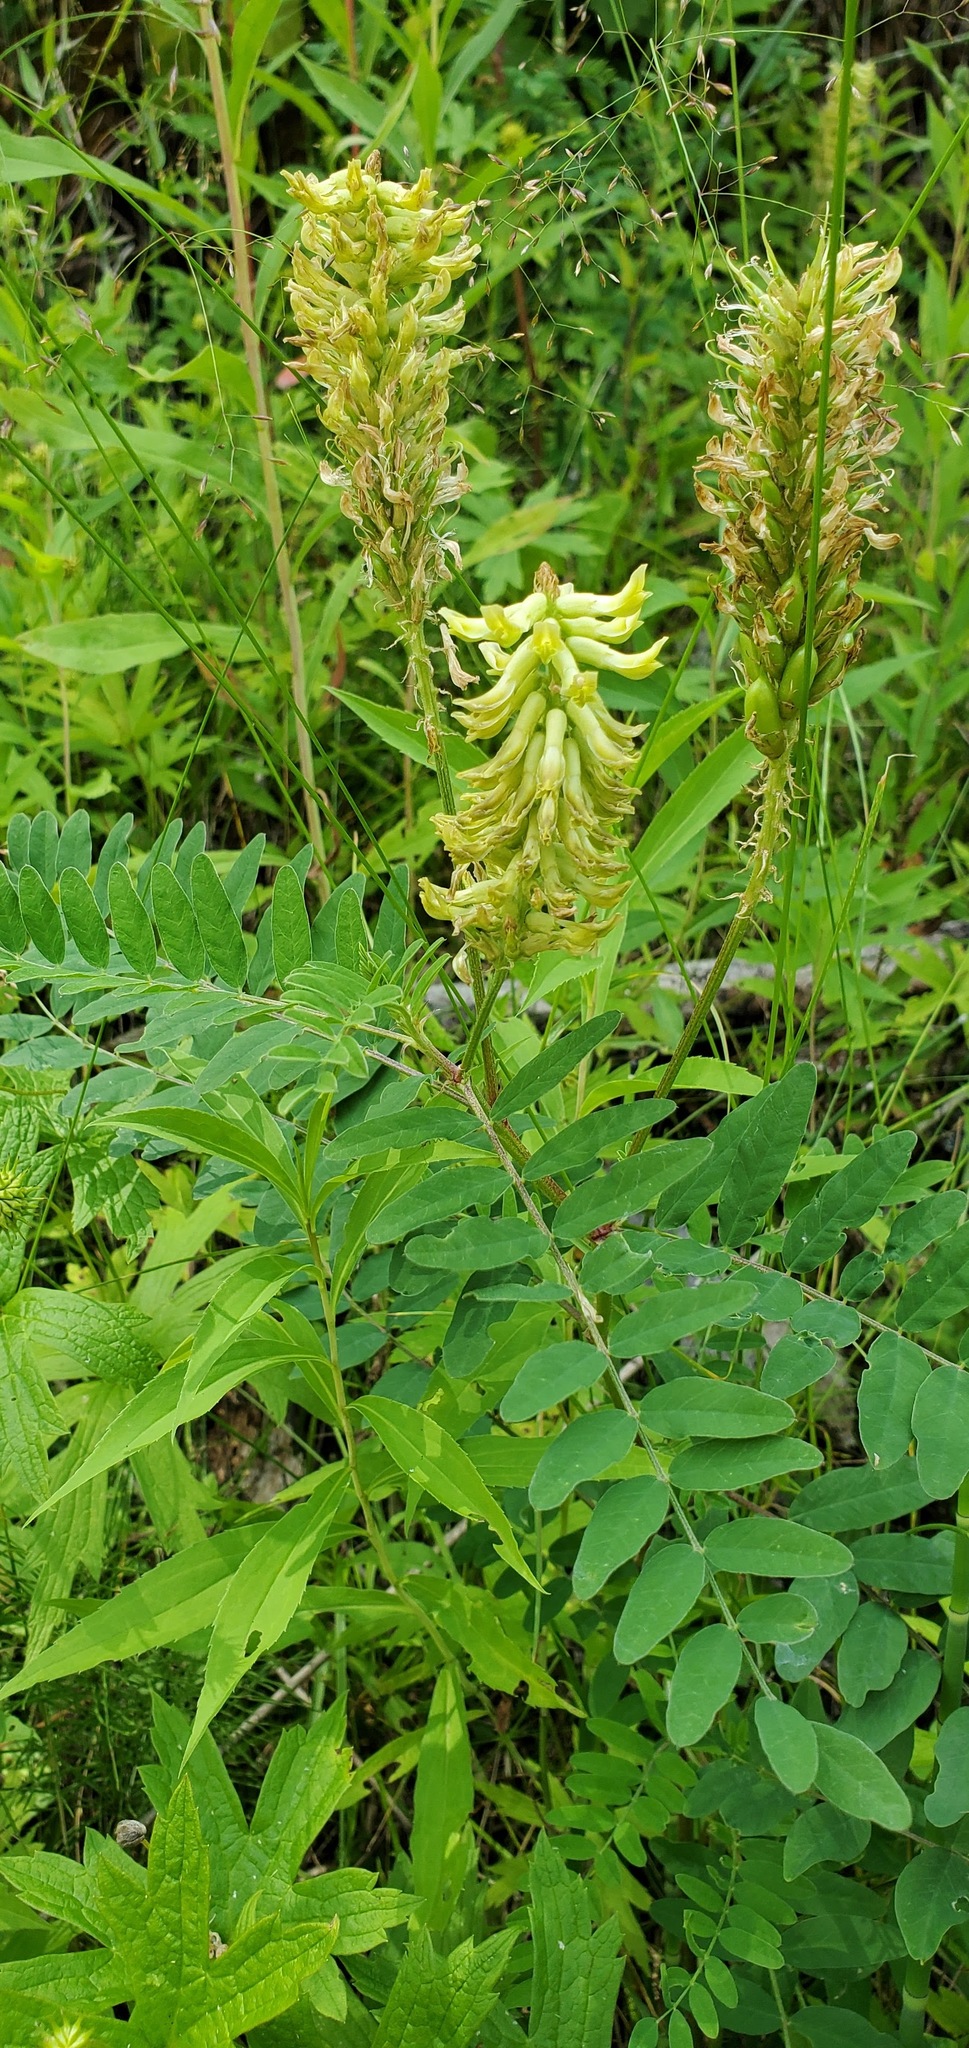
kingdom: Plantae
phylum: Tracheophyta
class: Magnoliopsida
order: Fabales
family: Fabaceae
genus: Astragalus
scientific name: Astragalus canadensis
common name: Canada milk-vetch
